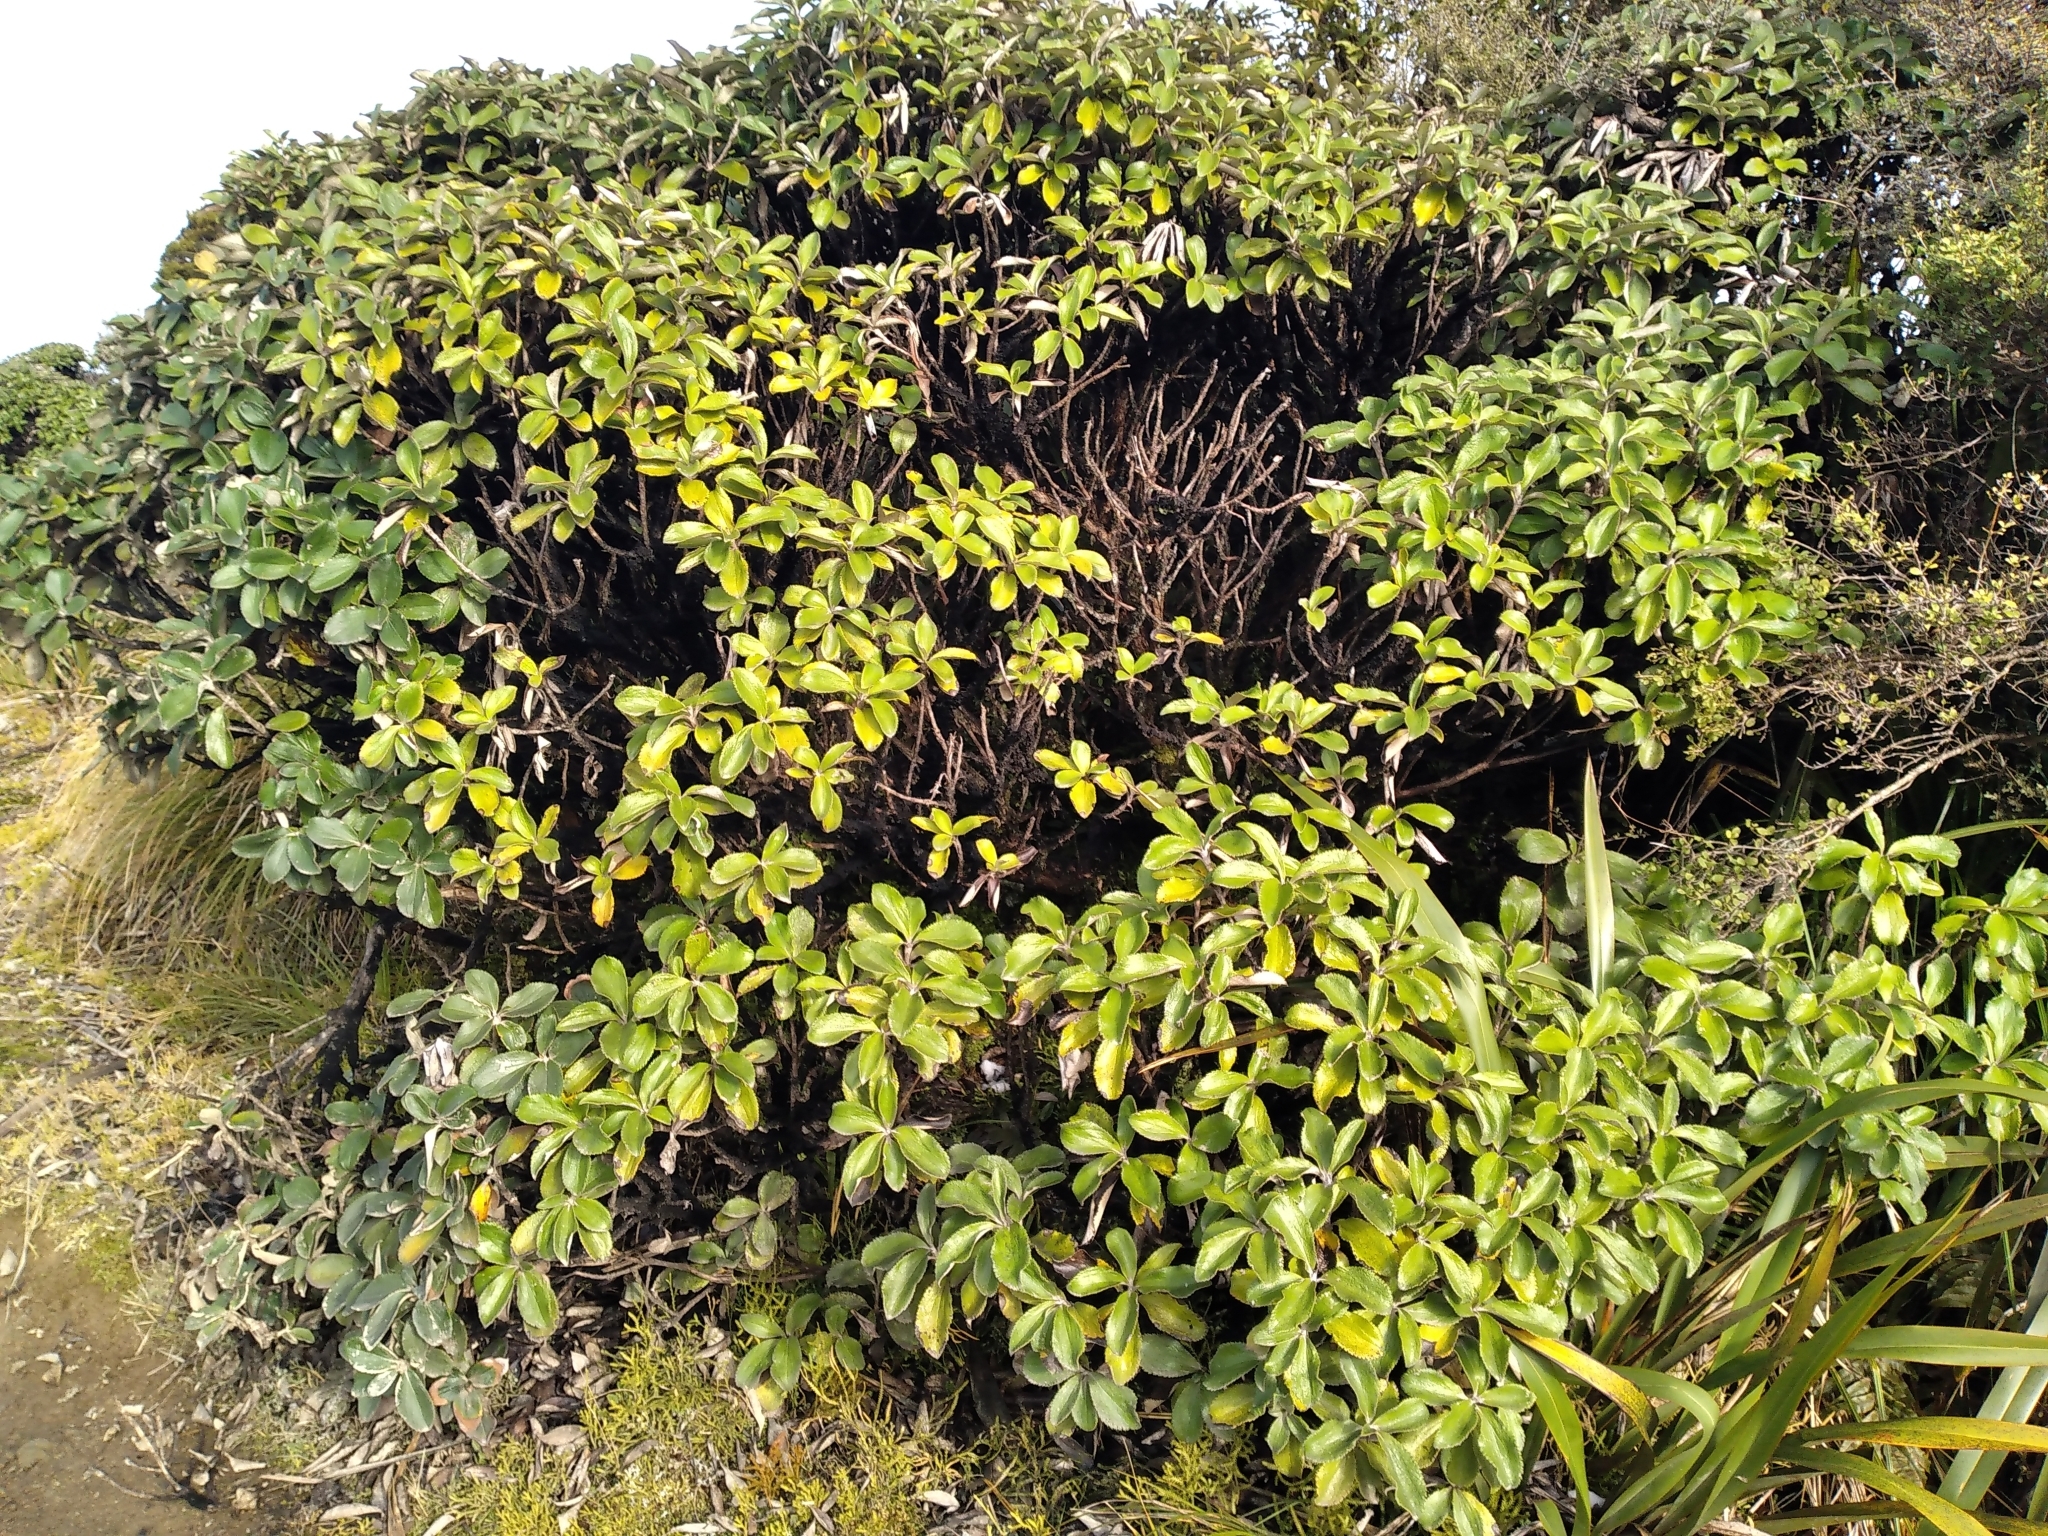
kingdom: Plantae
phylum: Tracheophyta
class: Magnoliopsida
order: Asterales
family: Asteraceae
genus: Macrolearia
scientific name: Macrolearia colensoi
